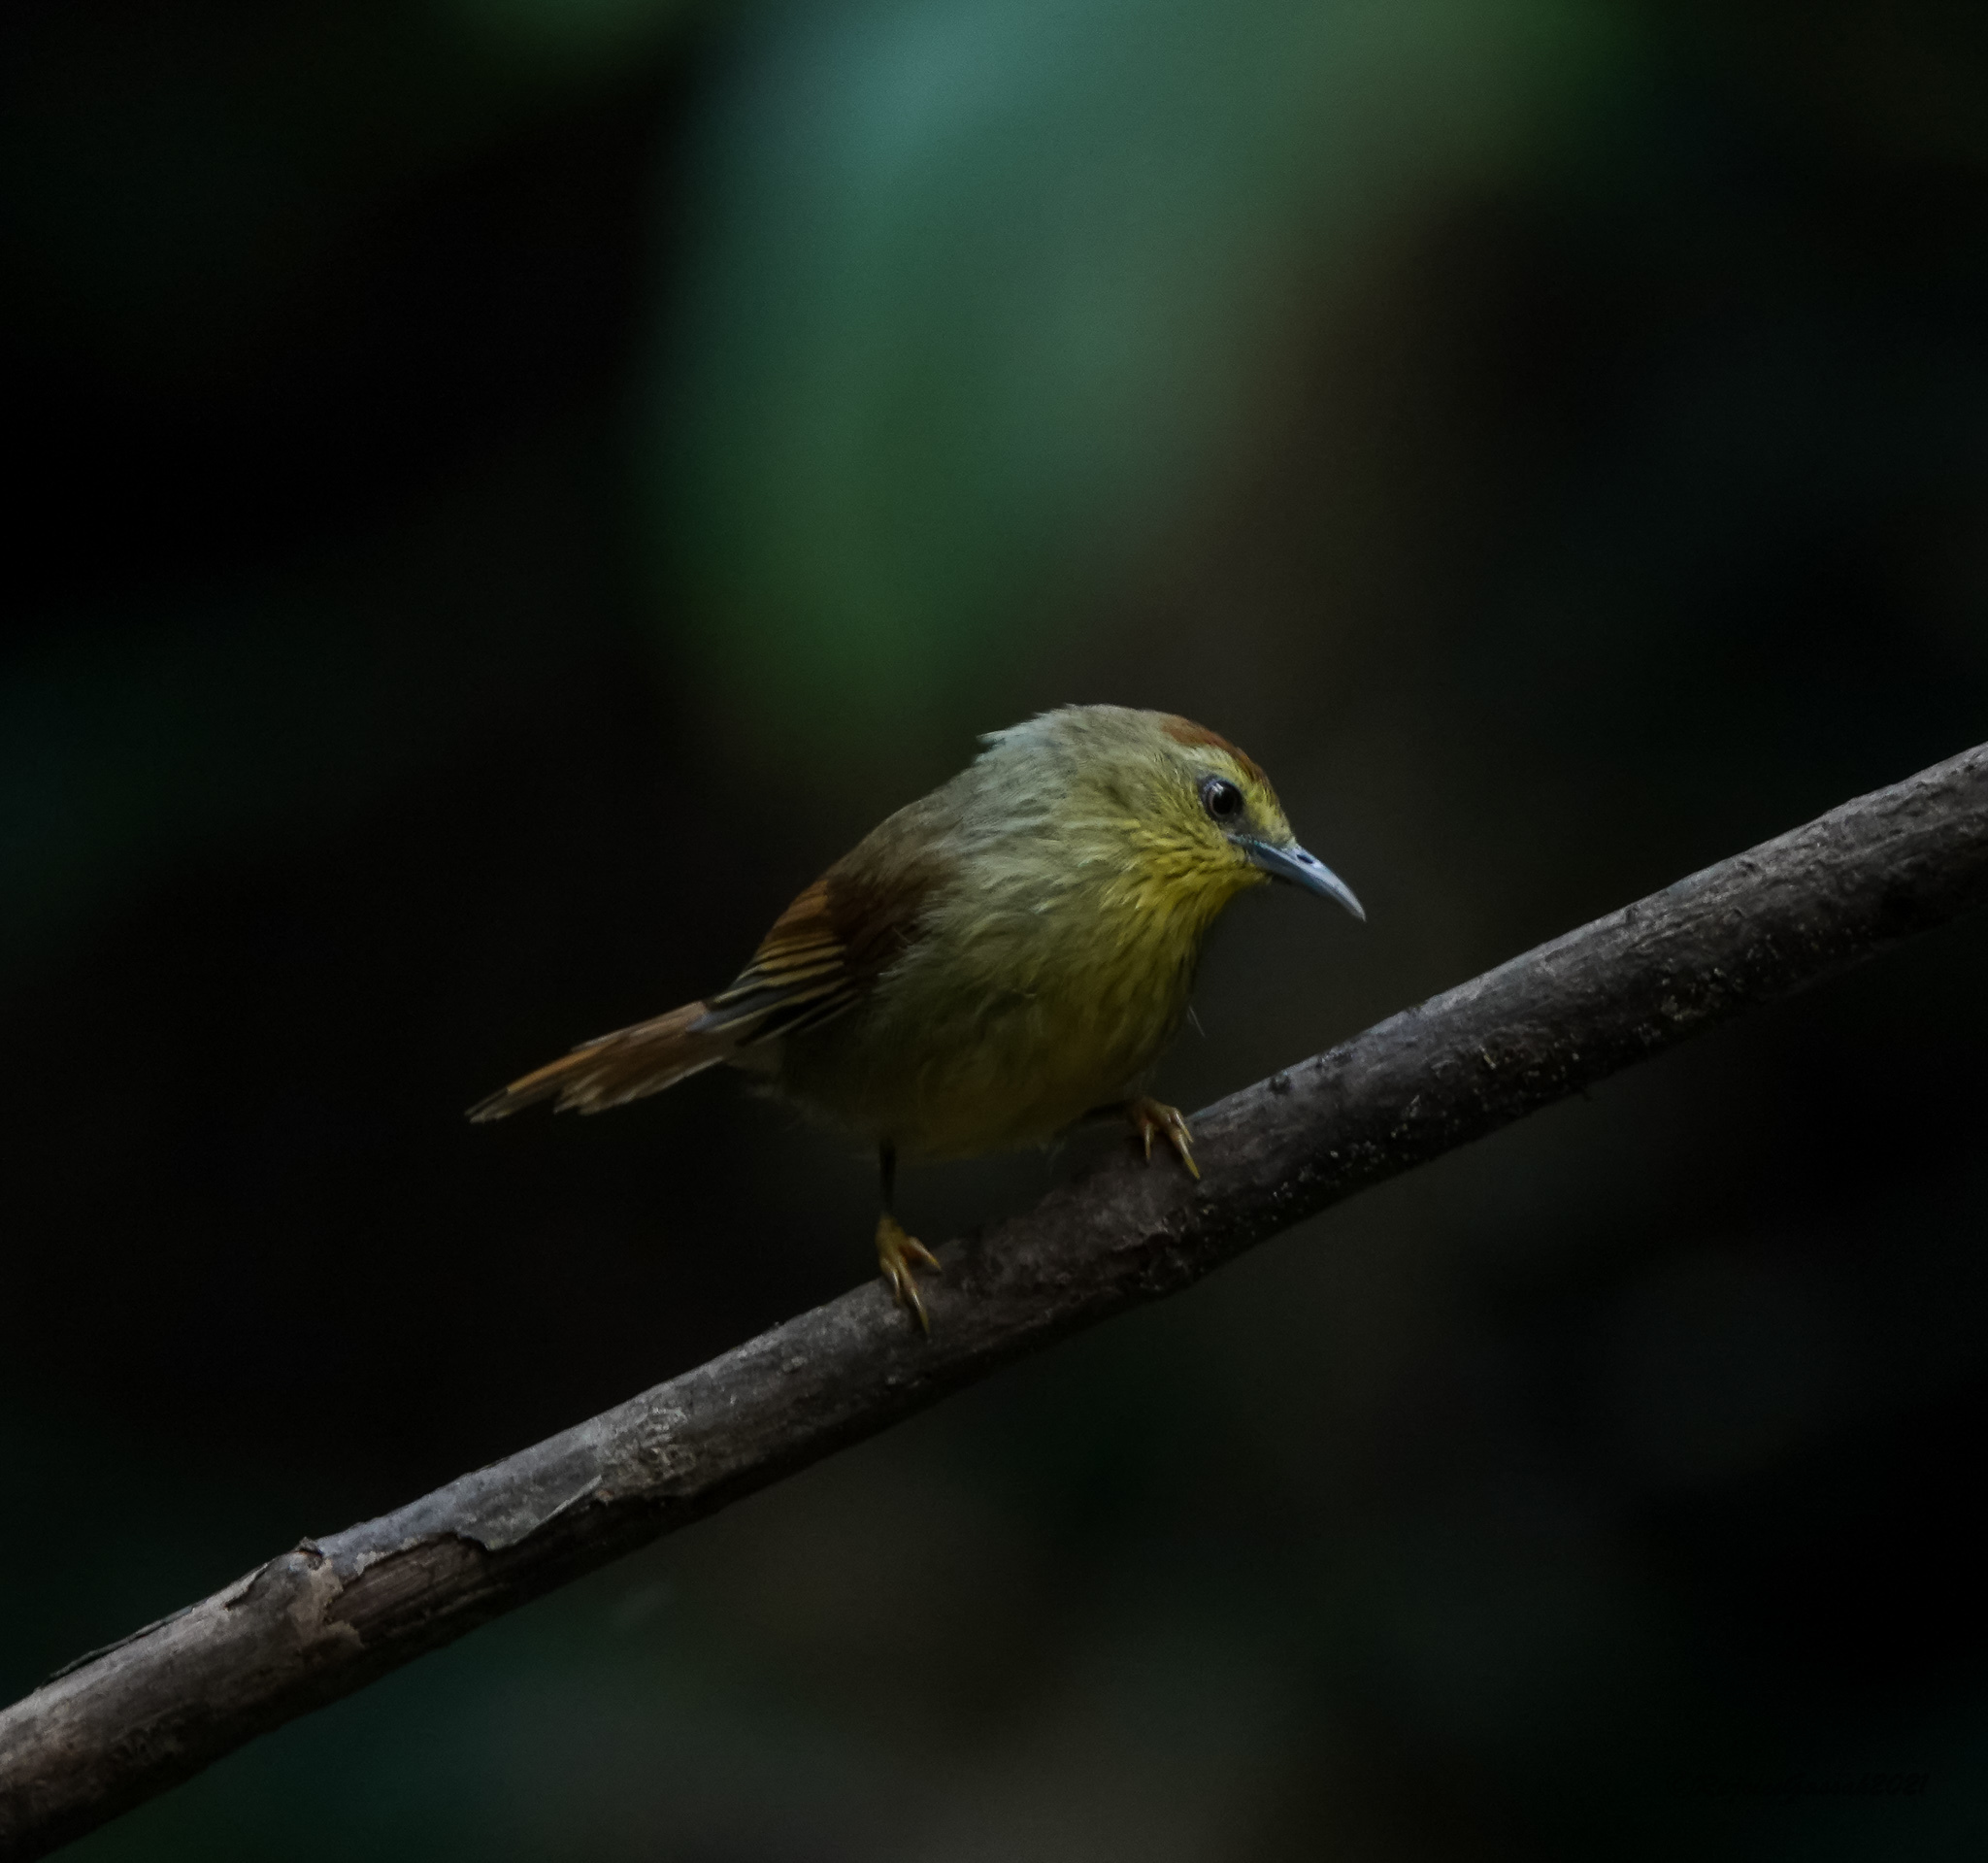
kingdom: Animalia
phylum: Chordata
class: Aves
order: Passeriformes
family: Timaliidae
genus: Macronus
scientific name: Macronus gularis
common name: Striped tit-babbler
